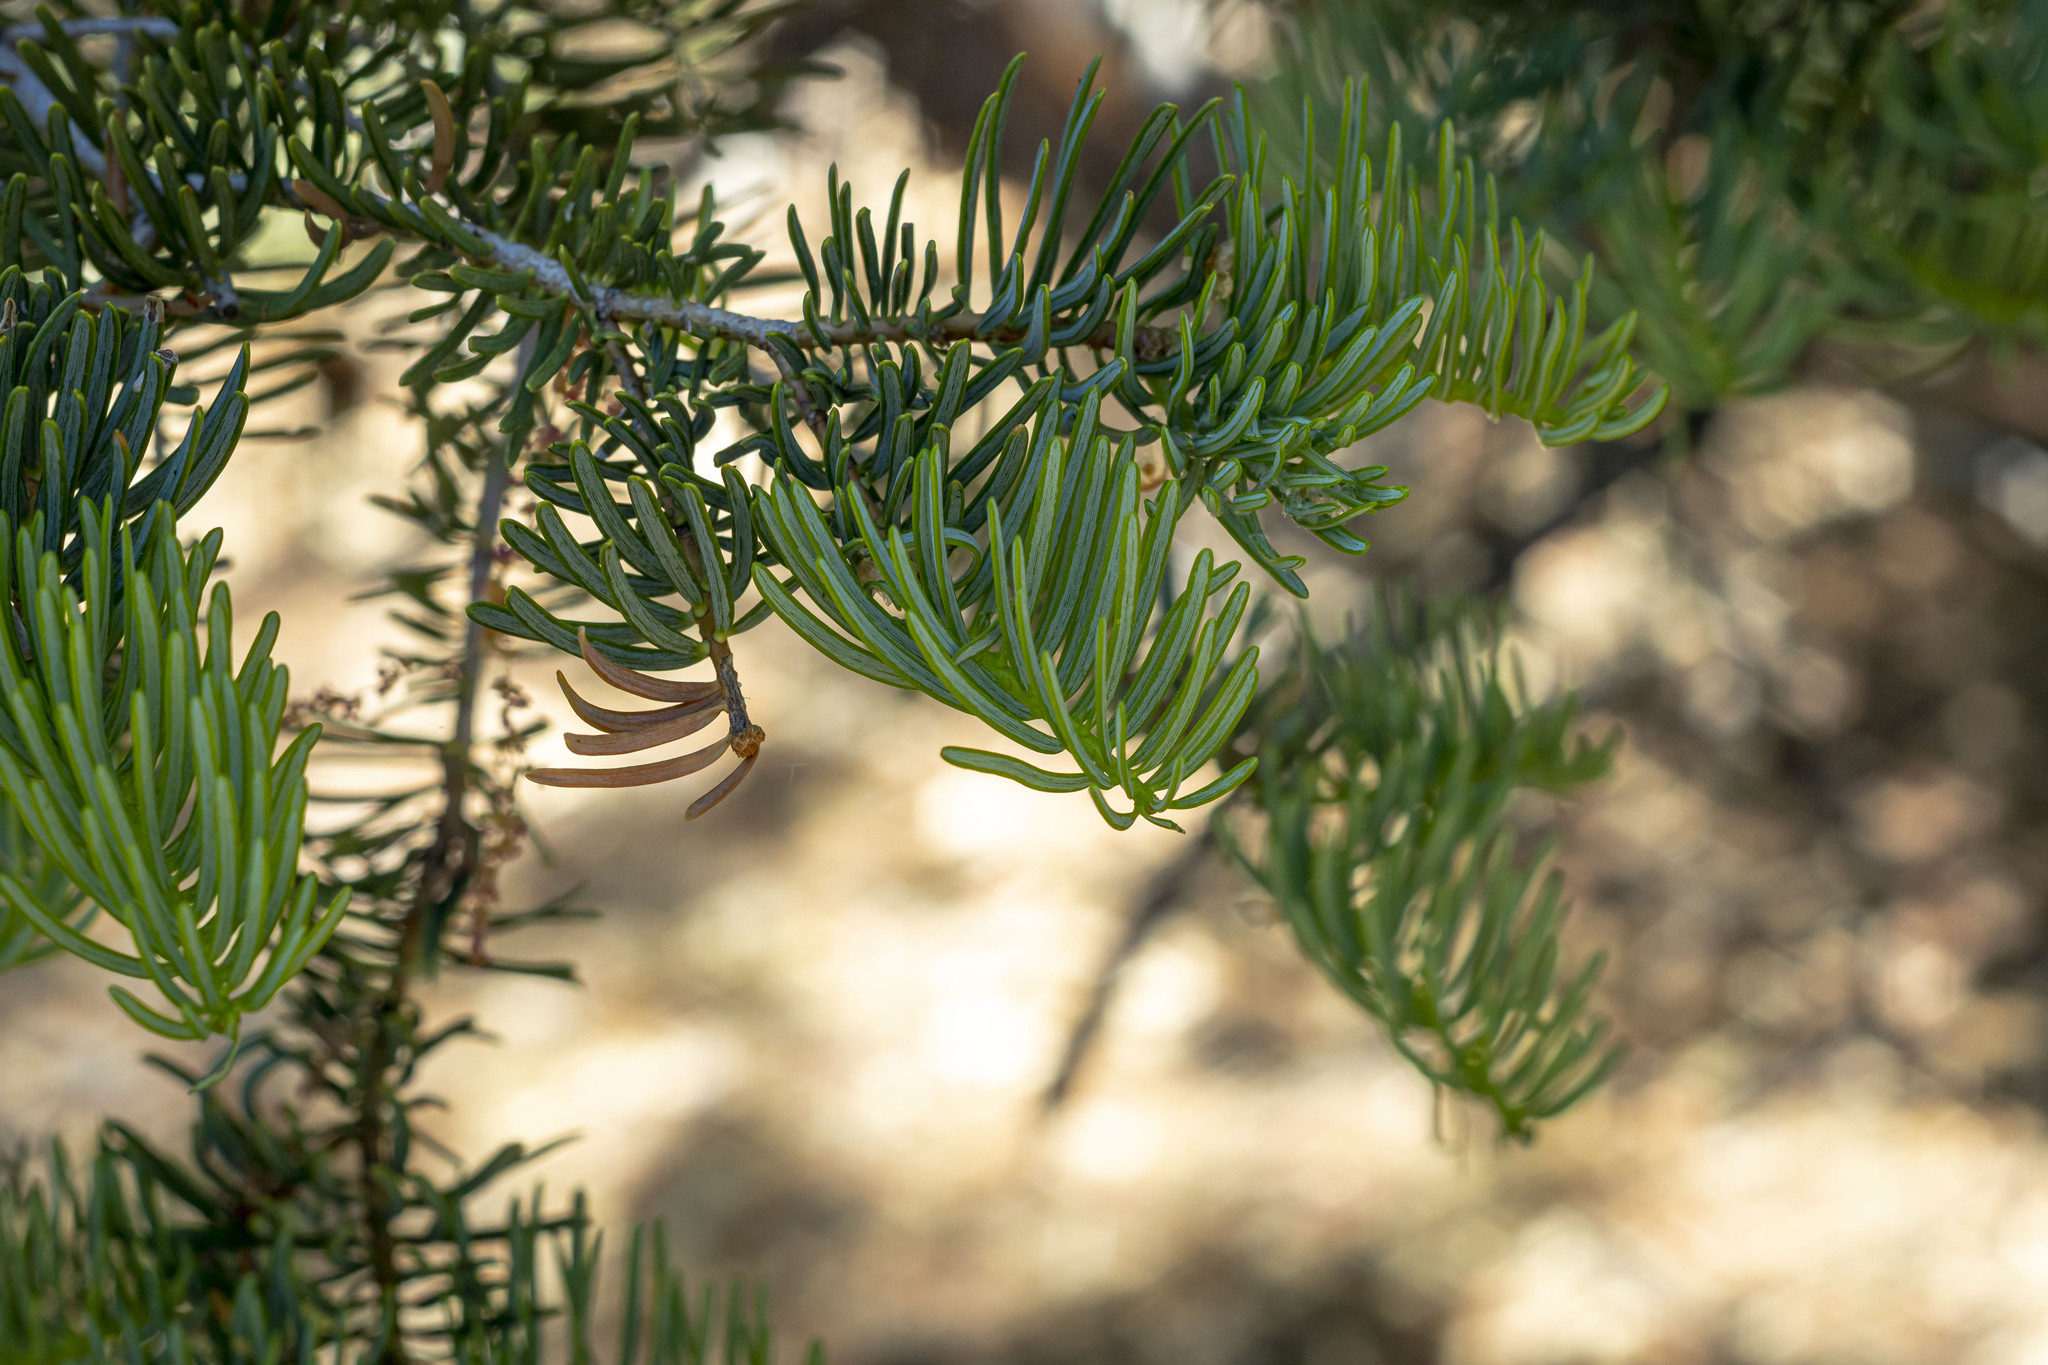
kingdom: Plantae
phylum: Tracheophyta
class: Pinopsida
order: Pinales
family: Pinaceae
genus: Abies
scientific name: Abies concolor
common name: Colorado fir
